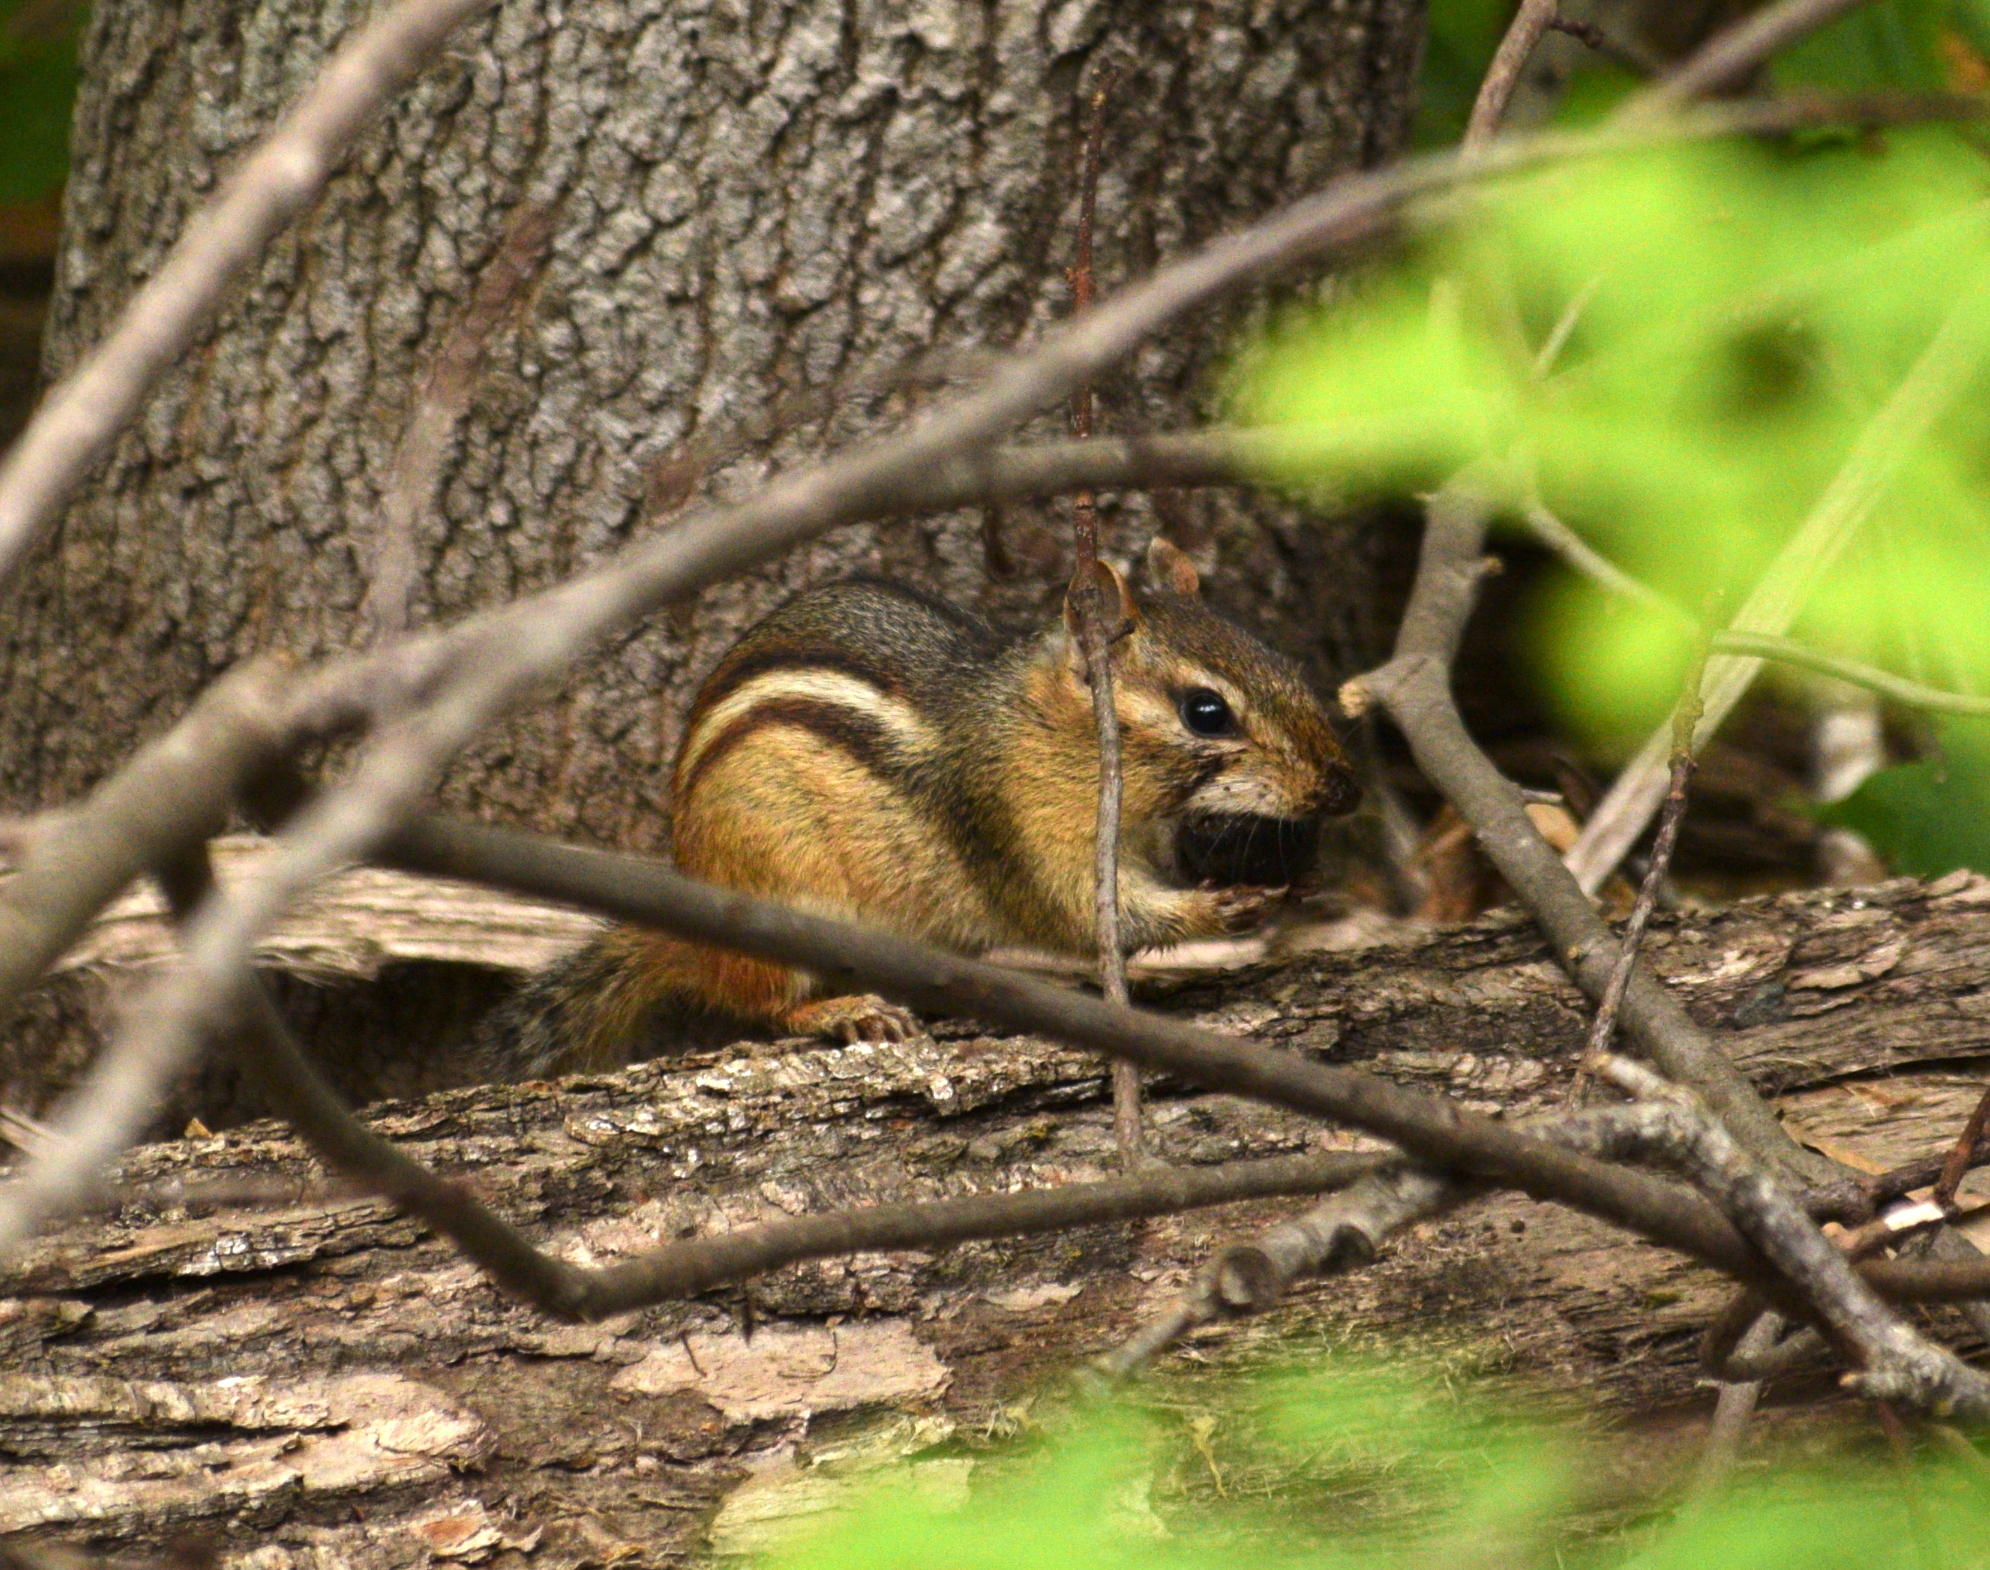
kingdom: Animalia
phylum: Chordata
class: Mammalia
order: Rodentia
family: Sciuridae
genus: Tamias
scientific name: Tamias striatus
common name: Eastern chipmunk
